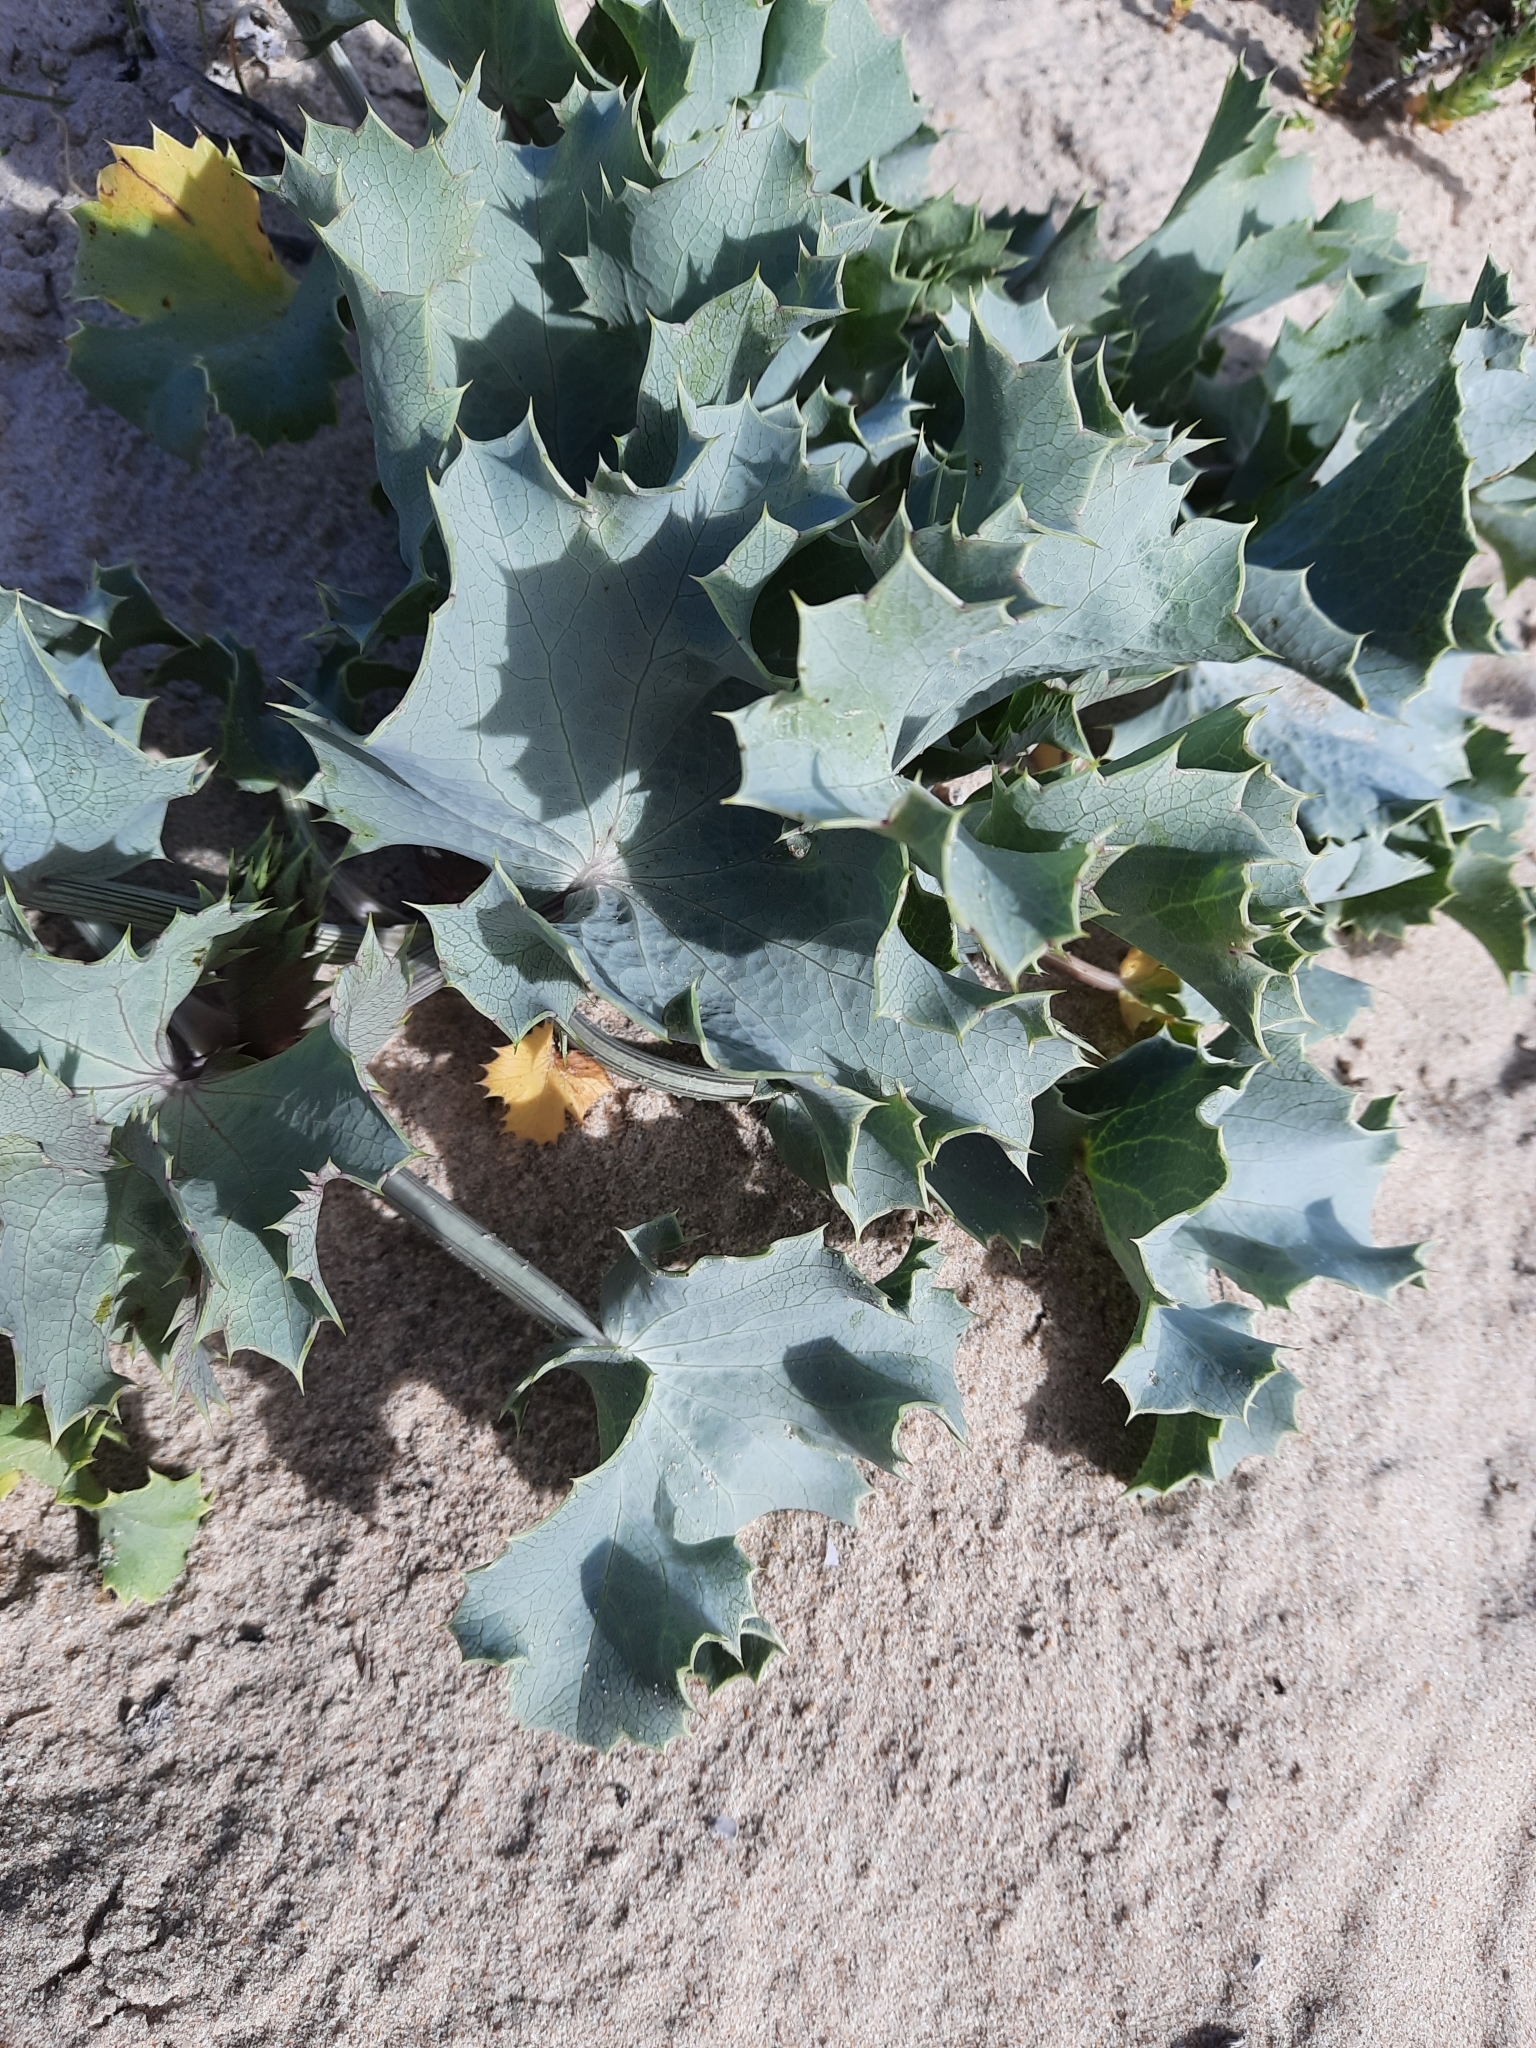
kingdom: Plantae
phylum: Tracheophyta
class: Magnoliopsida
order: Apiales
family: Apiaceae
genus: Eryngium
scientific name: Eryngium maritimum
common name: Sea-holly
